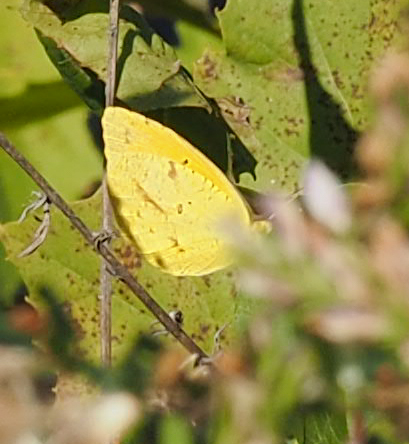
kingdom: Animalia
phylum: Arthropoda
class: Insecta
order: Lepidoptera
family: Pieridae
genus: Abaeis
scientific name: Abaeis nicippe
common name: Sleepy orange
